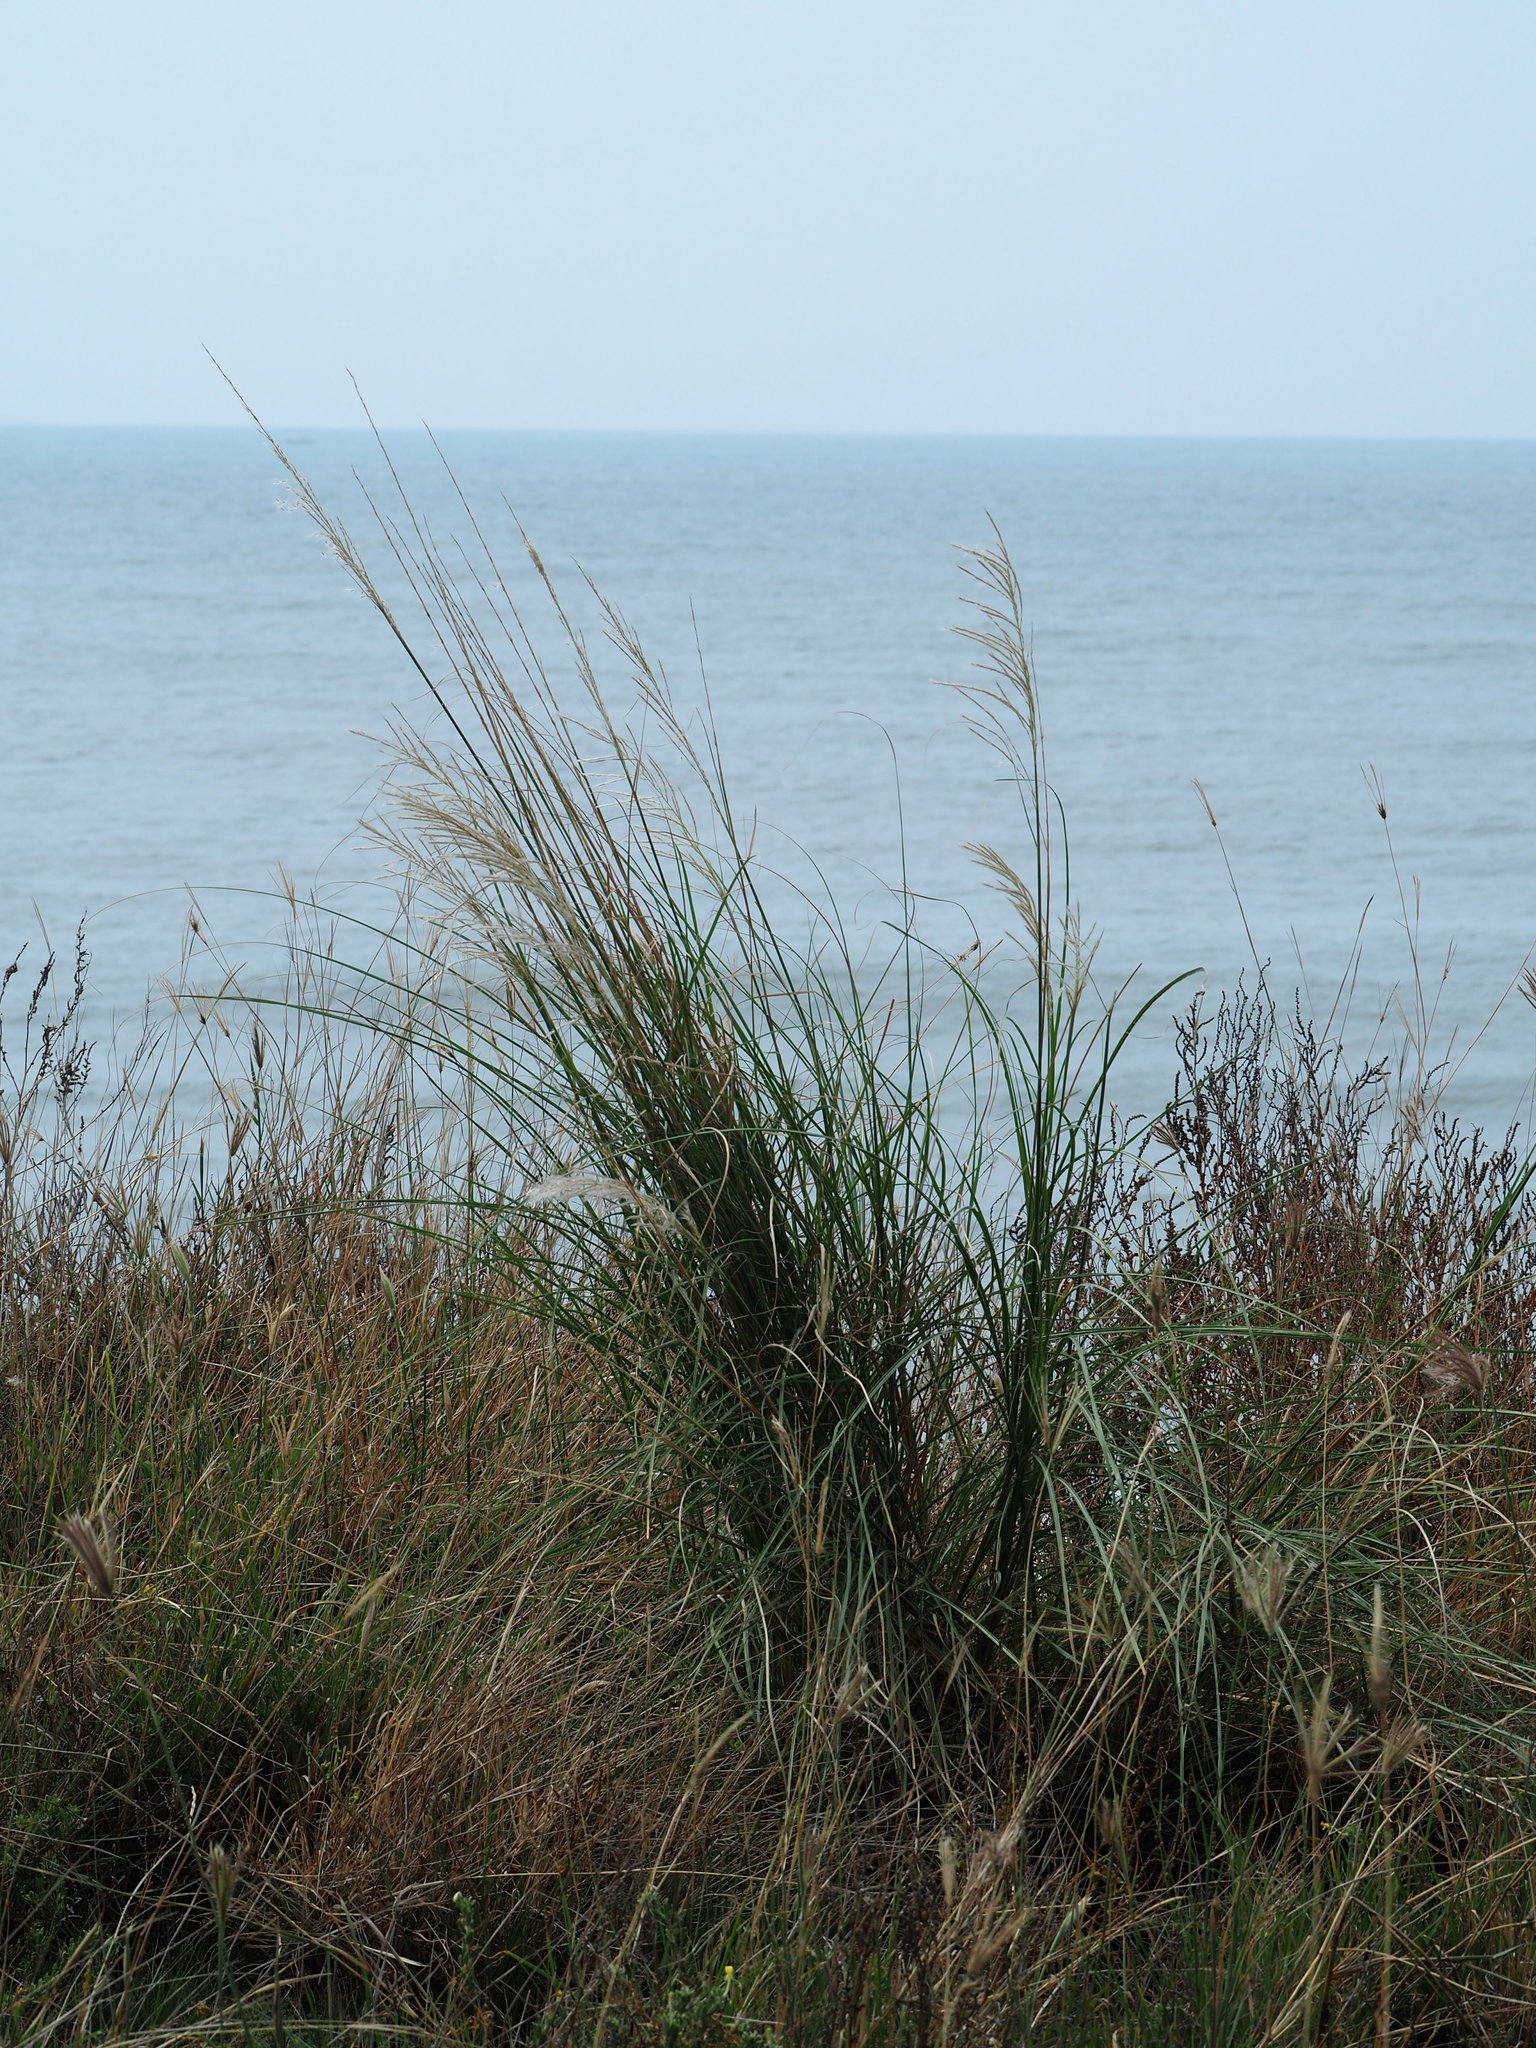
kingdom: Plantae
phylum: Tracheophyta
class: Liliopsida
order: Poales
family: Poaceae
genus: Saccharum
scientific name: Saccharum spontaneum
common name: Wild sugarcane
